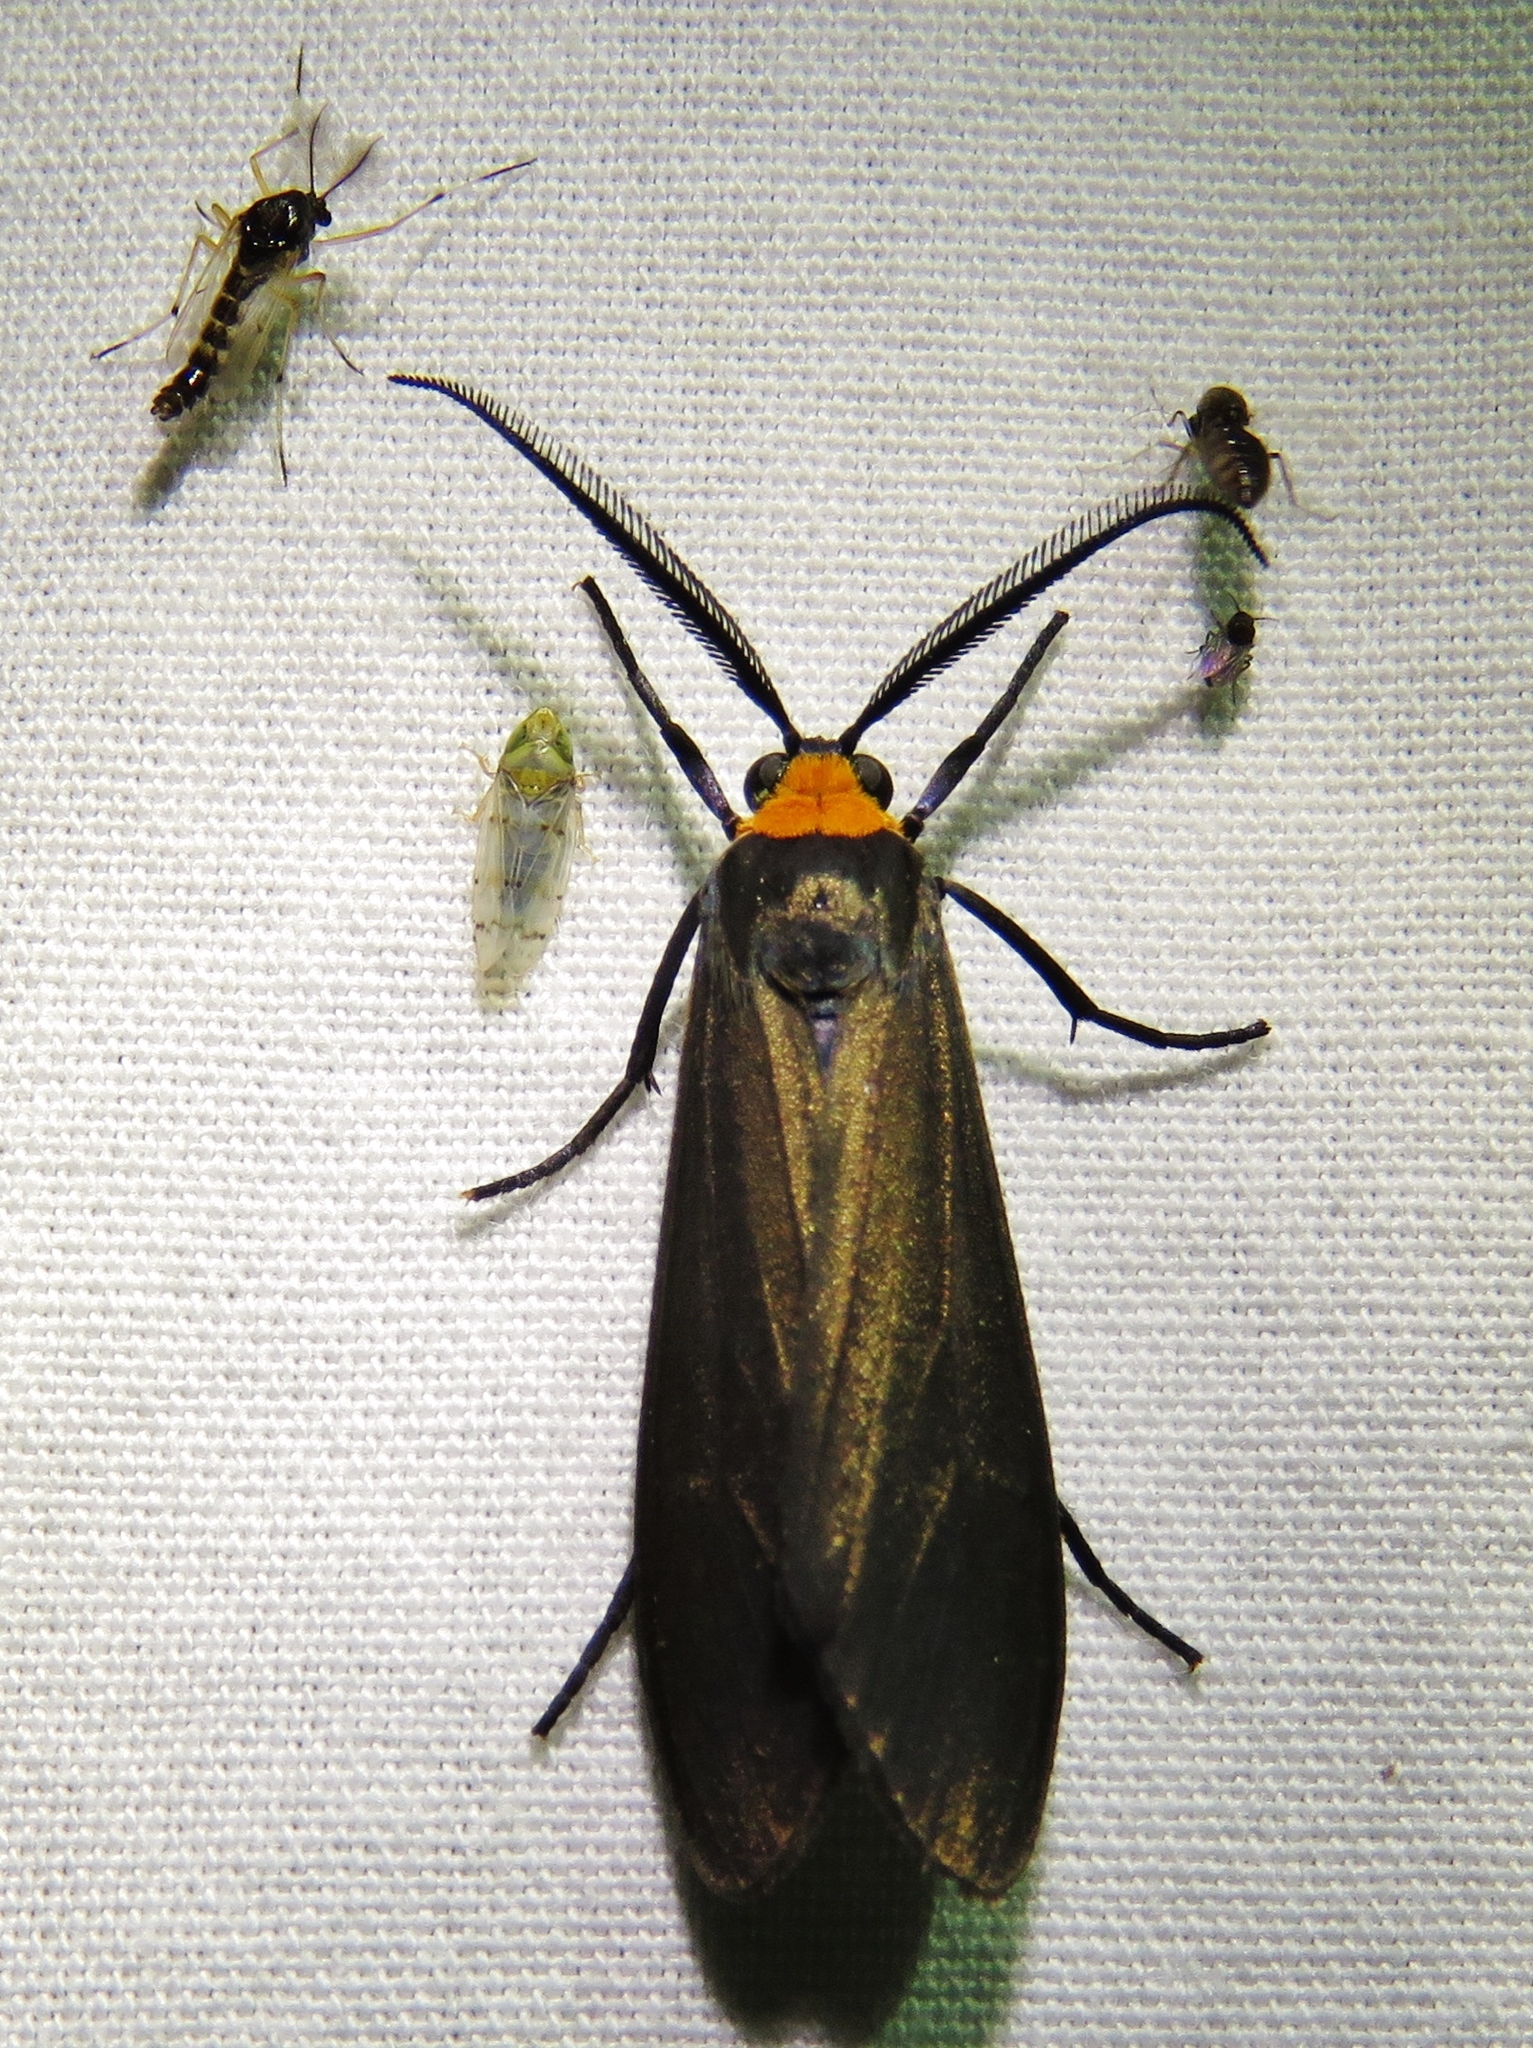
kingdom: Animalia
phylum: Arthropoda
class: Insecta
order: Lepidoptera
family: Erebidae
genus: Cisseps
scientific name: Cisseps fulvicollis
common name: Yellow-collared scape moth
